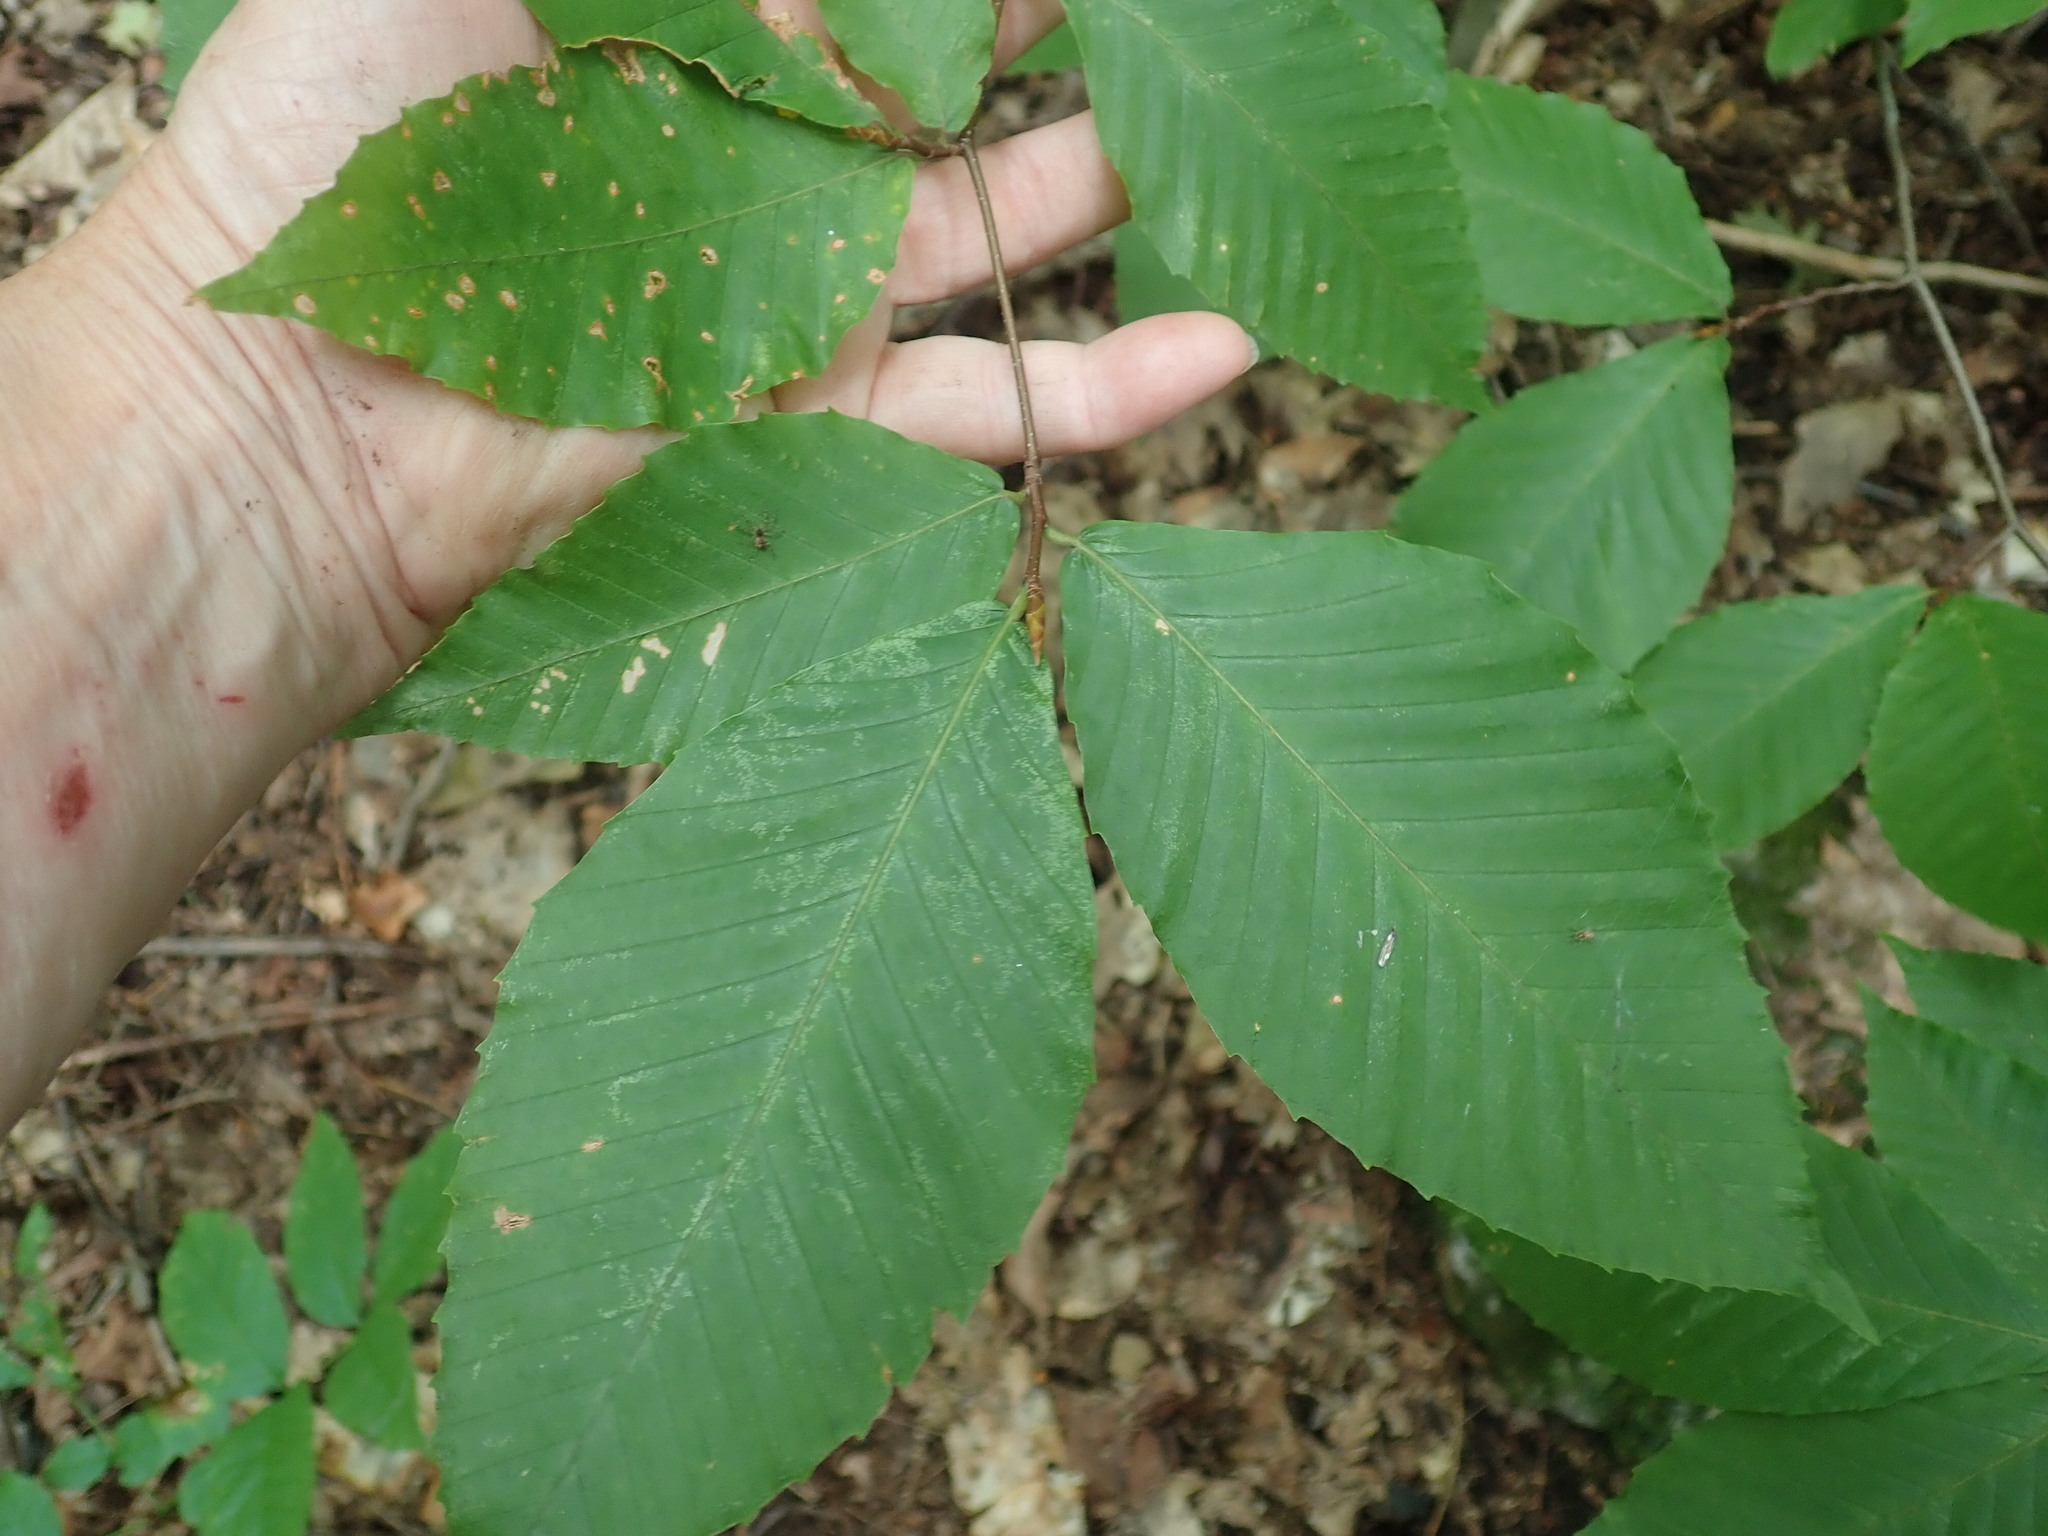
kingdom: Plantae
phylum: Tracheophyta
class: Magnoliopsida
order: Fagales
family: Fagaceae
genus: Fagus
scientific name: Fagus grandifolia
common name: American beech
